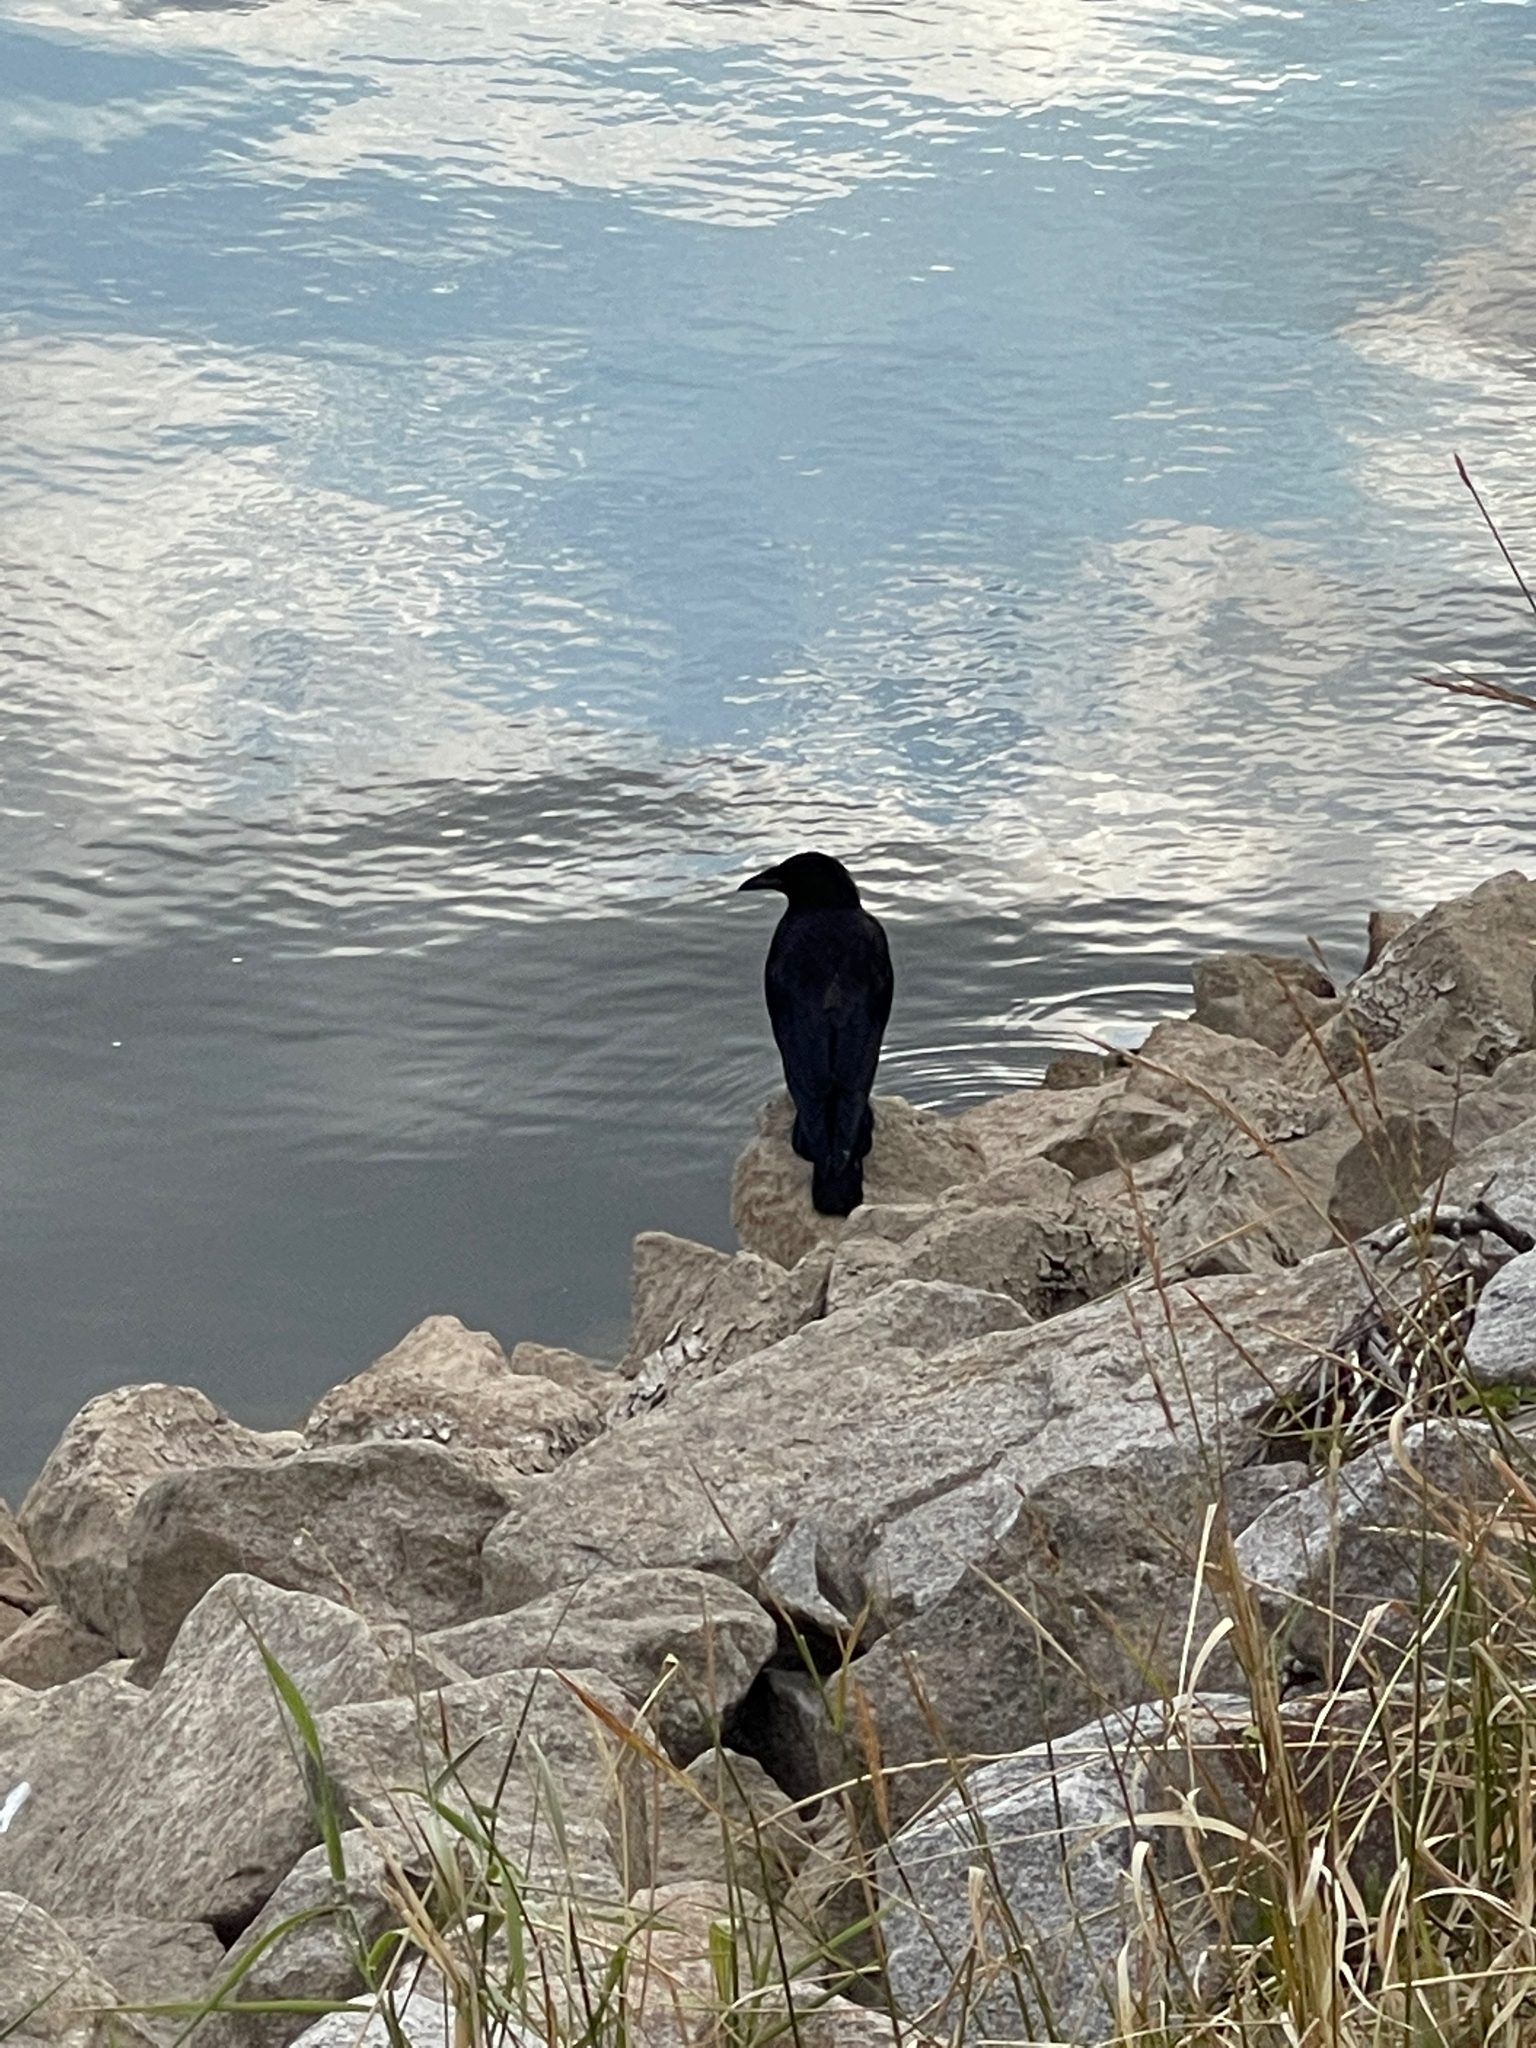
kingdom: Animalia
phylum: Chordata
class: Aves
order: Passeriformes
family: Corvidae
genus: Corvus
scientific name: Corvus corone
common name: Carrion crow
